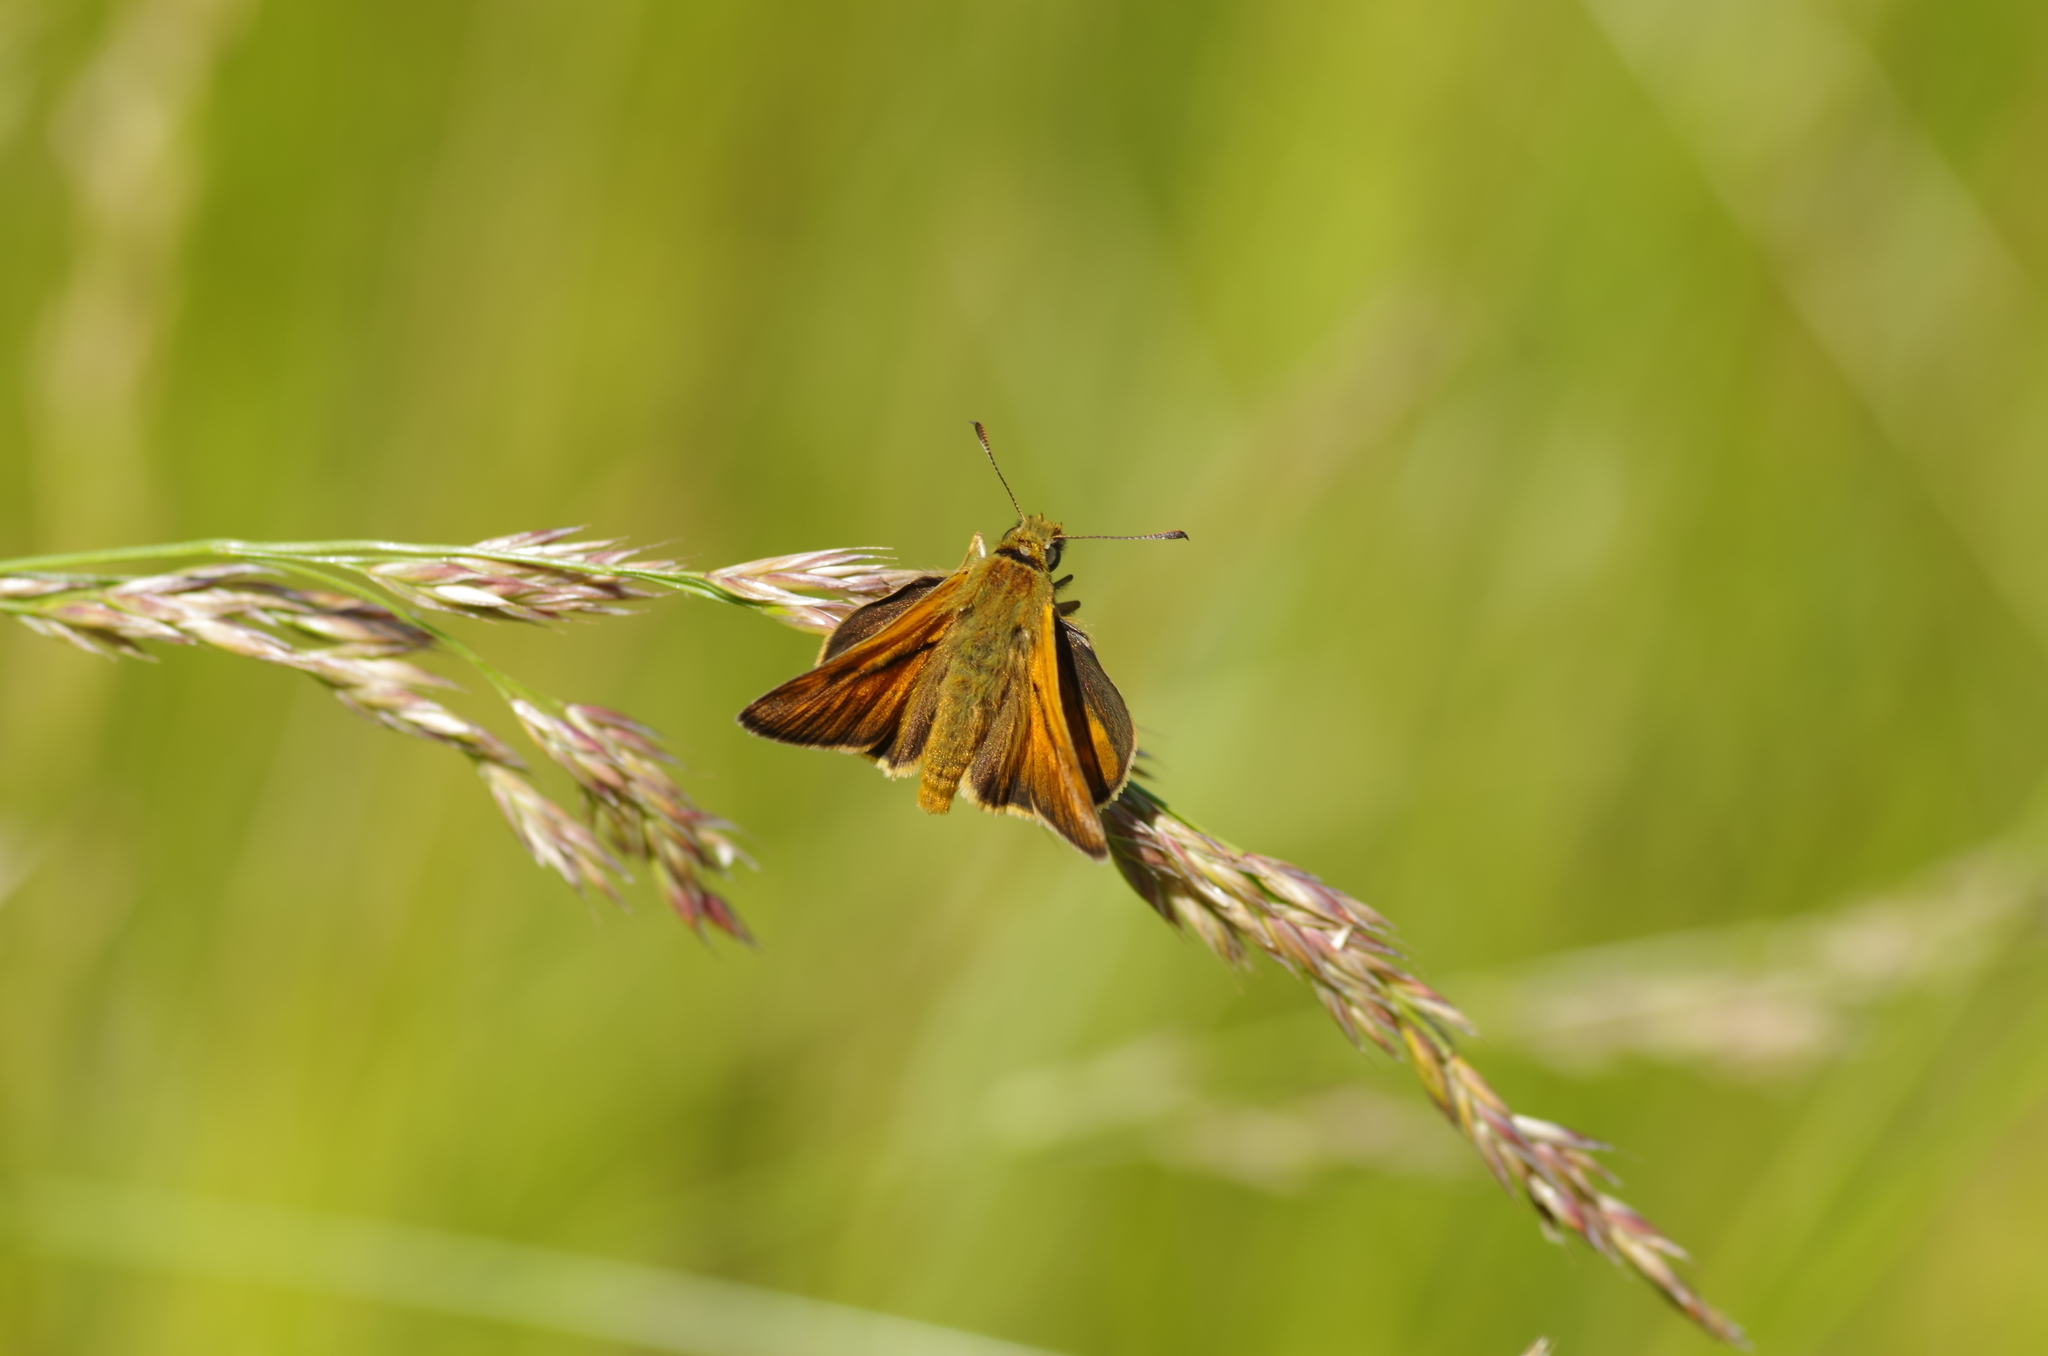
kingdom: Animalia
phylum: Arthropoda
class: Insecta
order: Lepidoptera
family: Hesperiidae
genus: Ochlodes
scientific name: Ochlodes venata
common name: Large skipper
